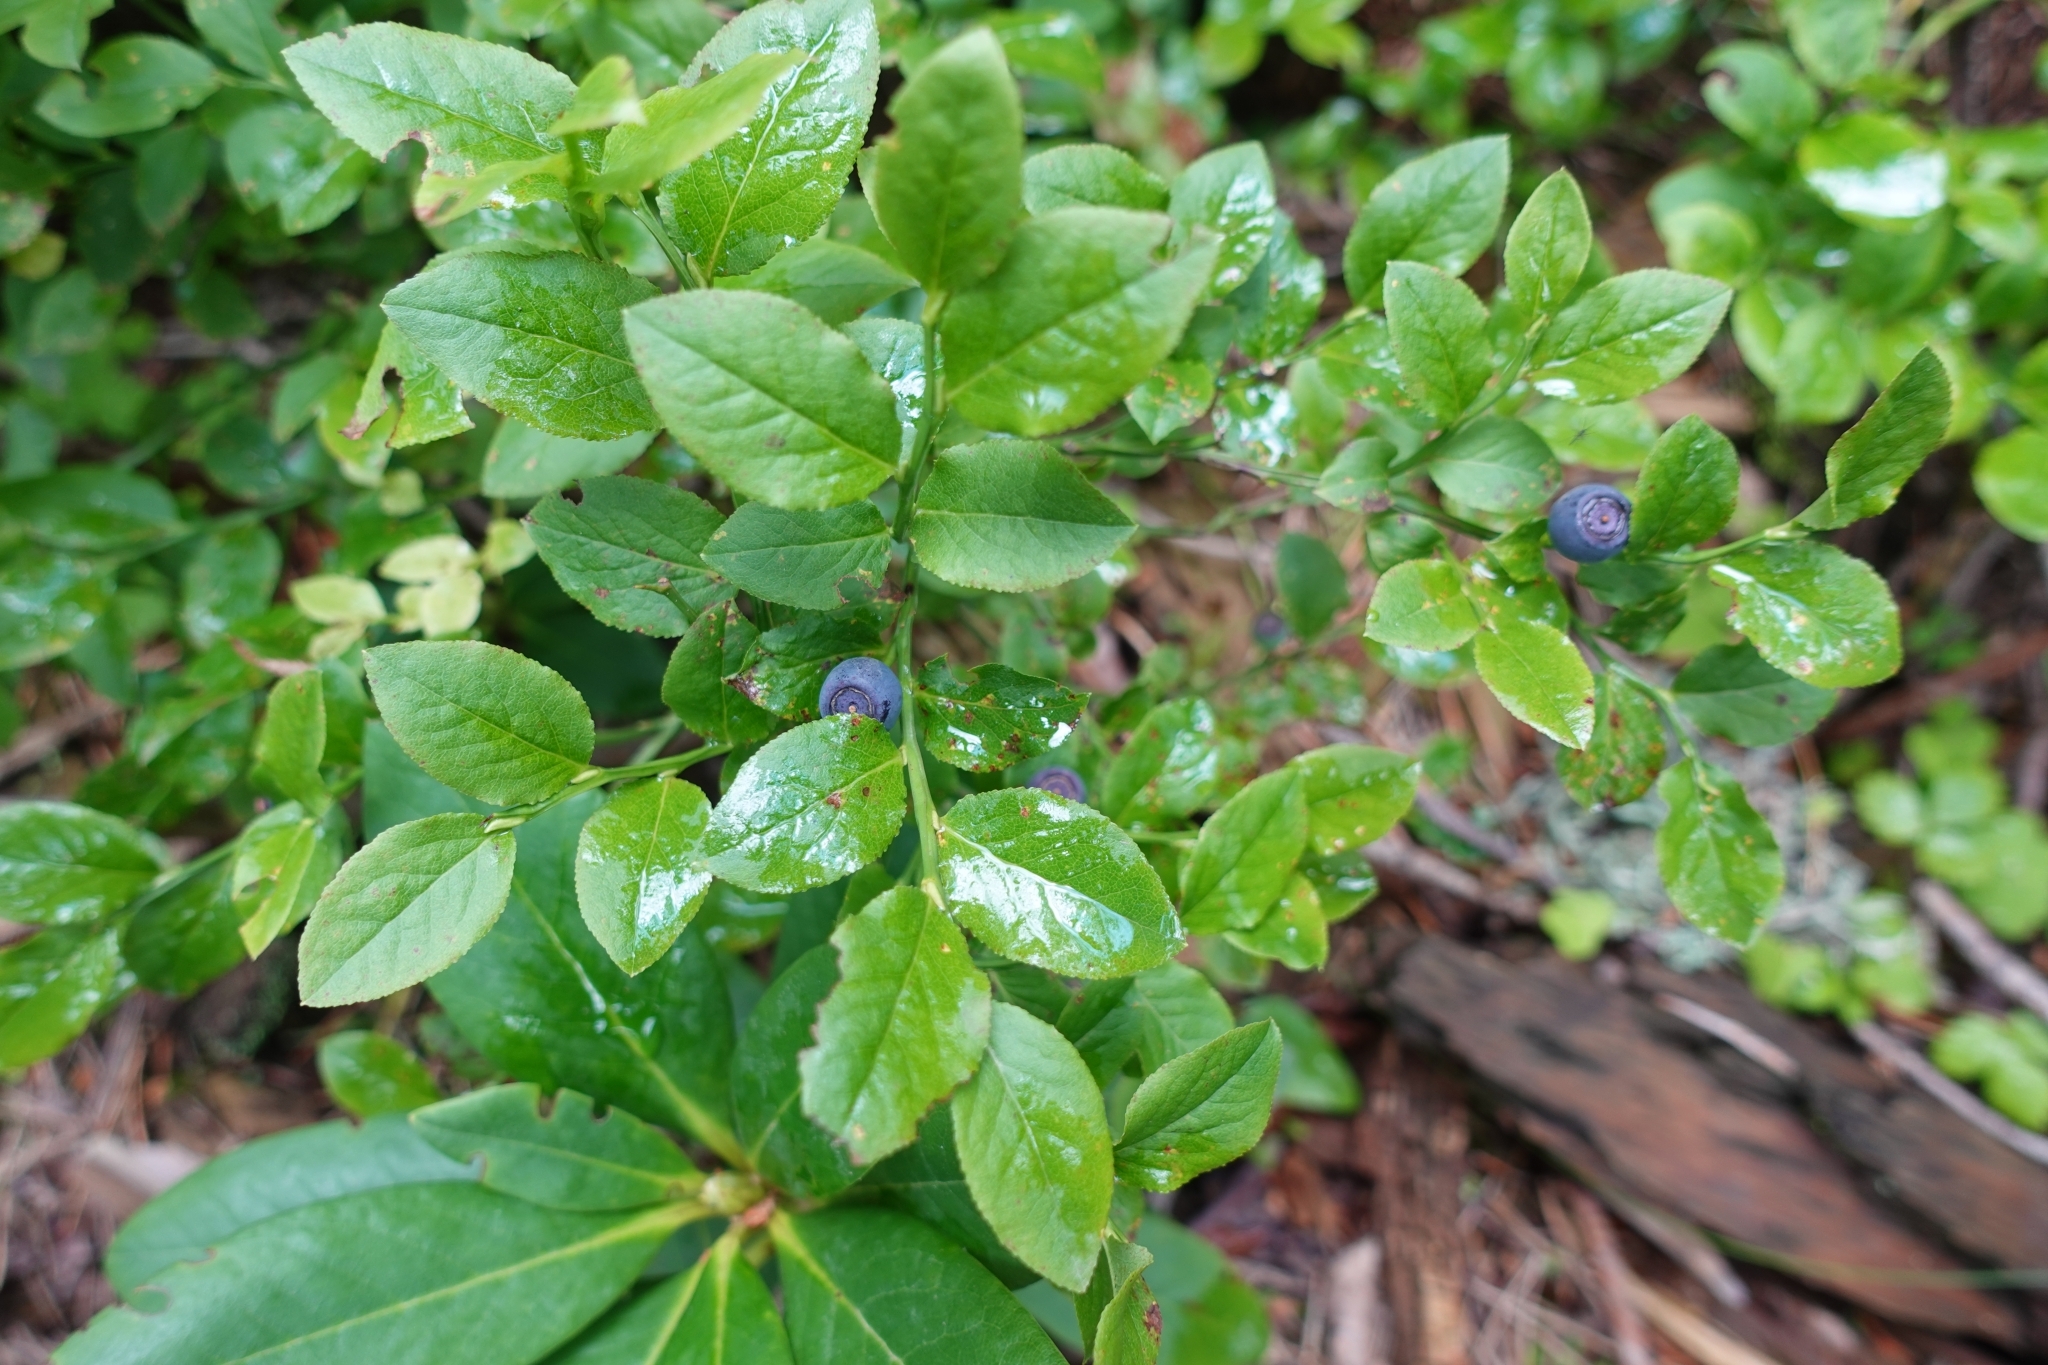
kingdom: Plantae
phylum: Tracheophyta
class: Magnoliopsida
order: Ericales
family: Ericaceae
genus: Vaccinium
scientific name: Vaccinium myrtillus
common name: Bilberry
